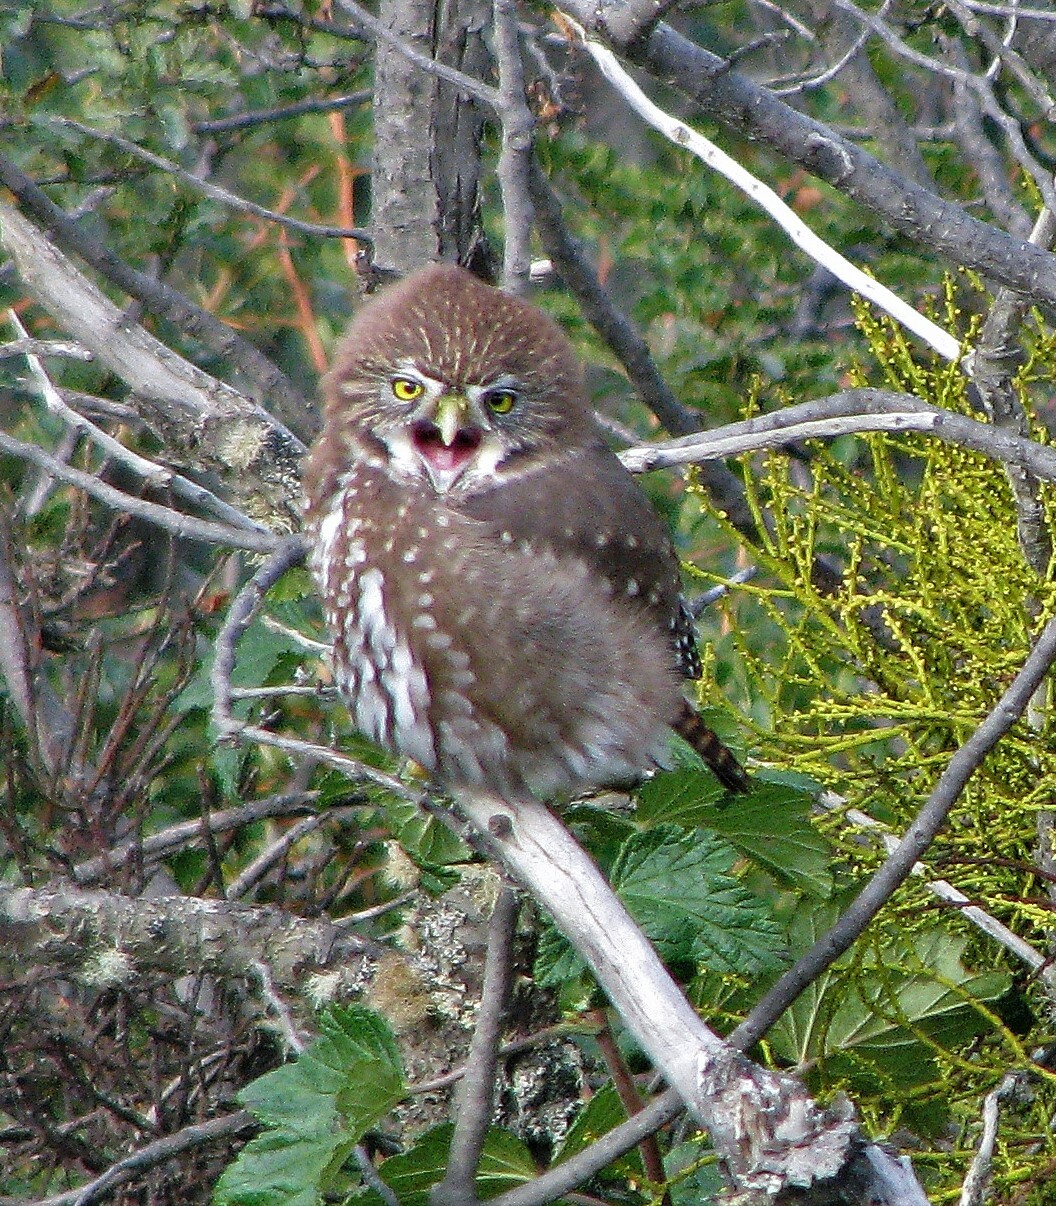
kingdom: Animalia
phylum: Chordata
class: Aves
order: Strigiformes
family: Strigidae
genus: Glaucidium
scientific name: Glaucidium nana
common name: Austral pygmy-owl
